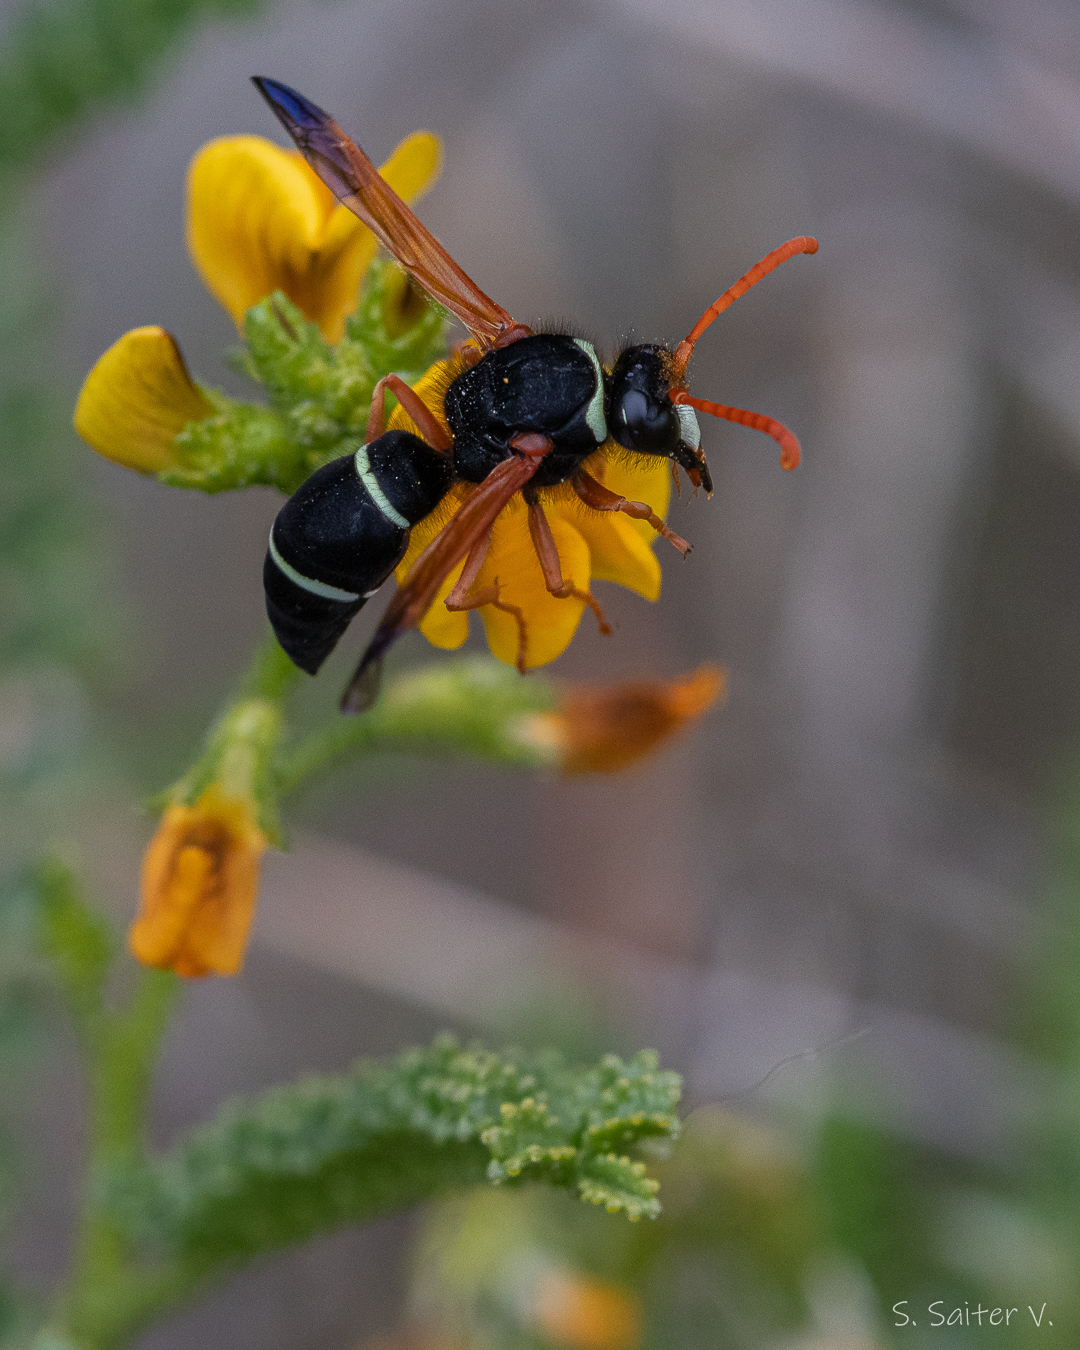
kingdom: Animalia
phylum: Arthropoda
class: Insecta
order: Hymenoptera
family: Vespidae
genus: Hypodynerus
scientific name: Hypodynerus labiatus
